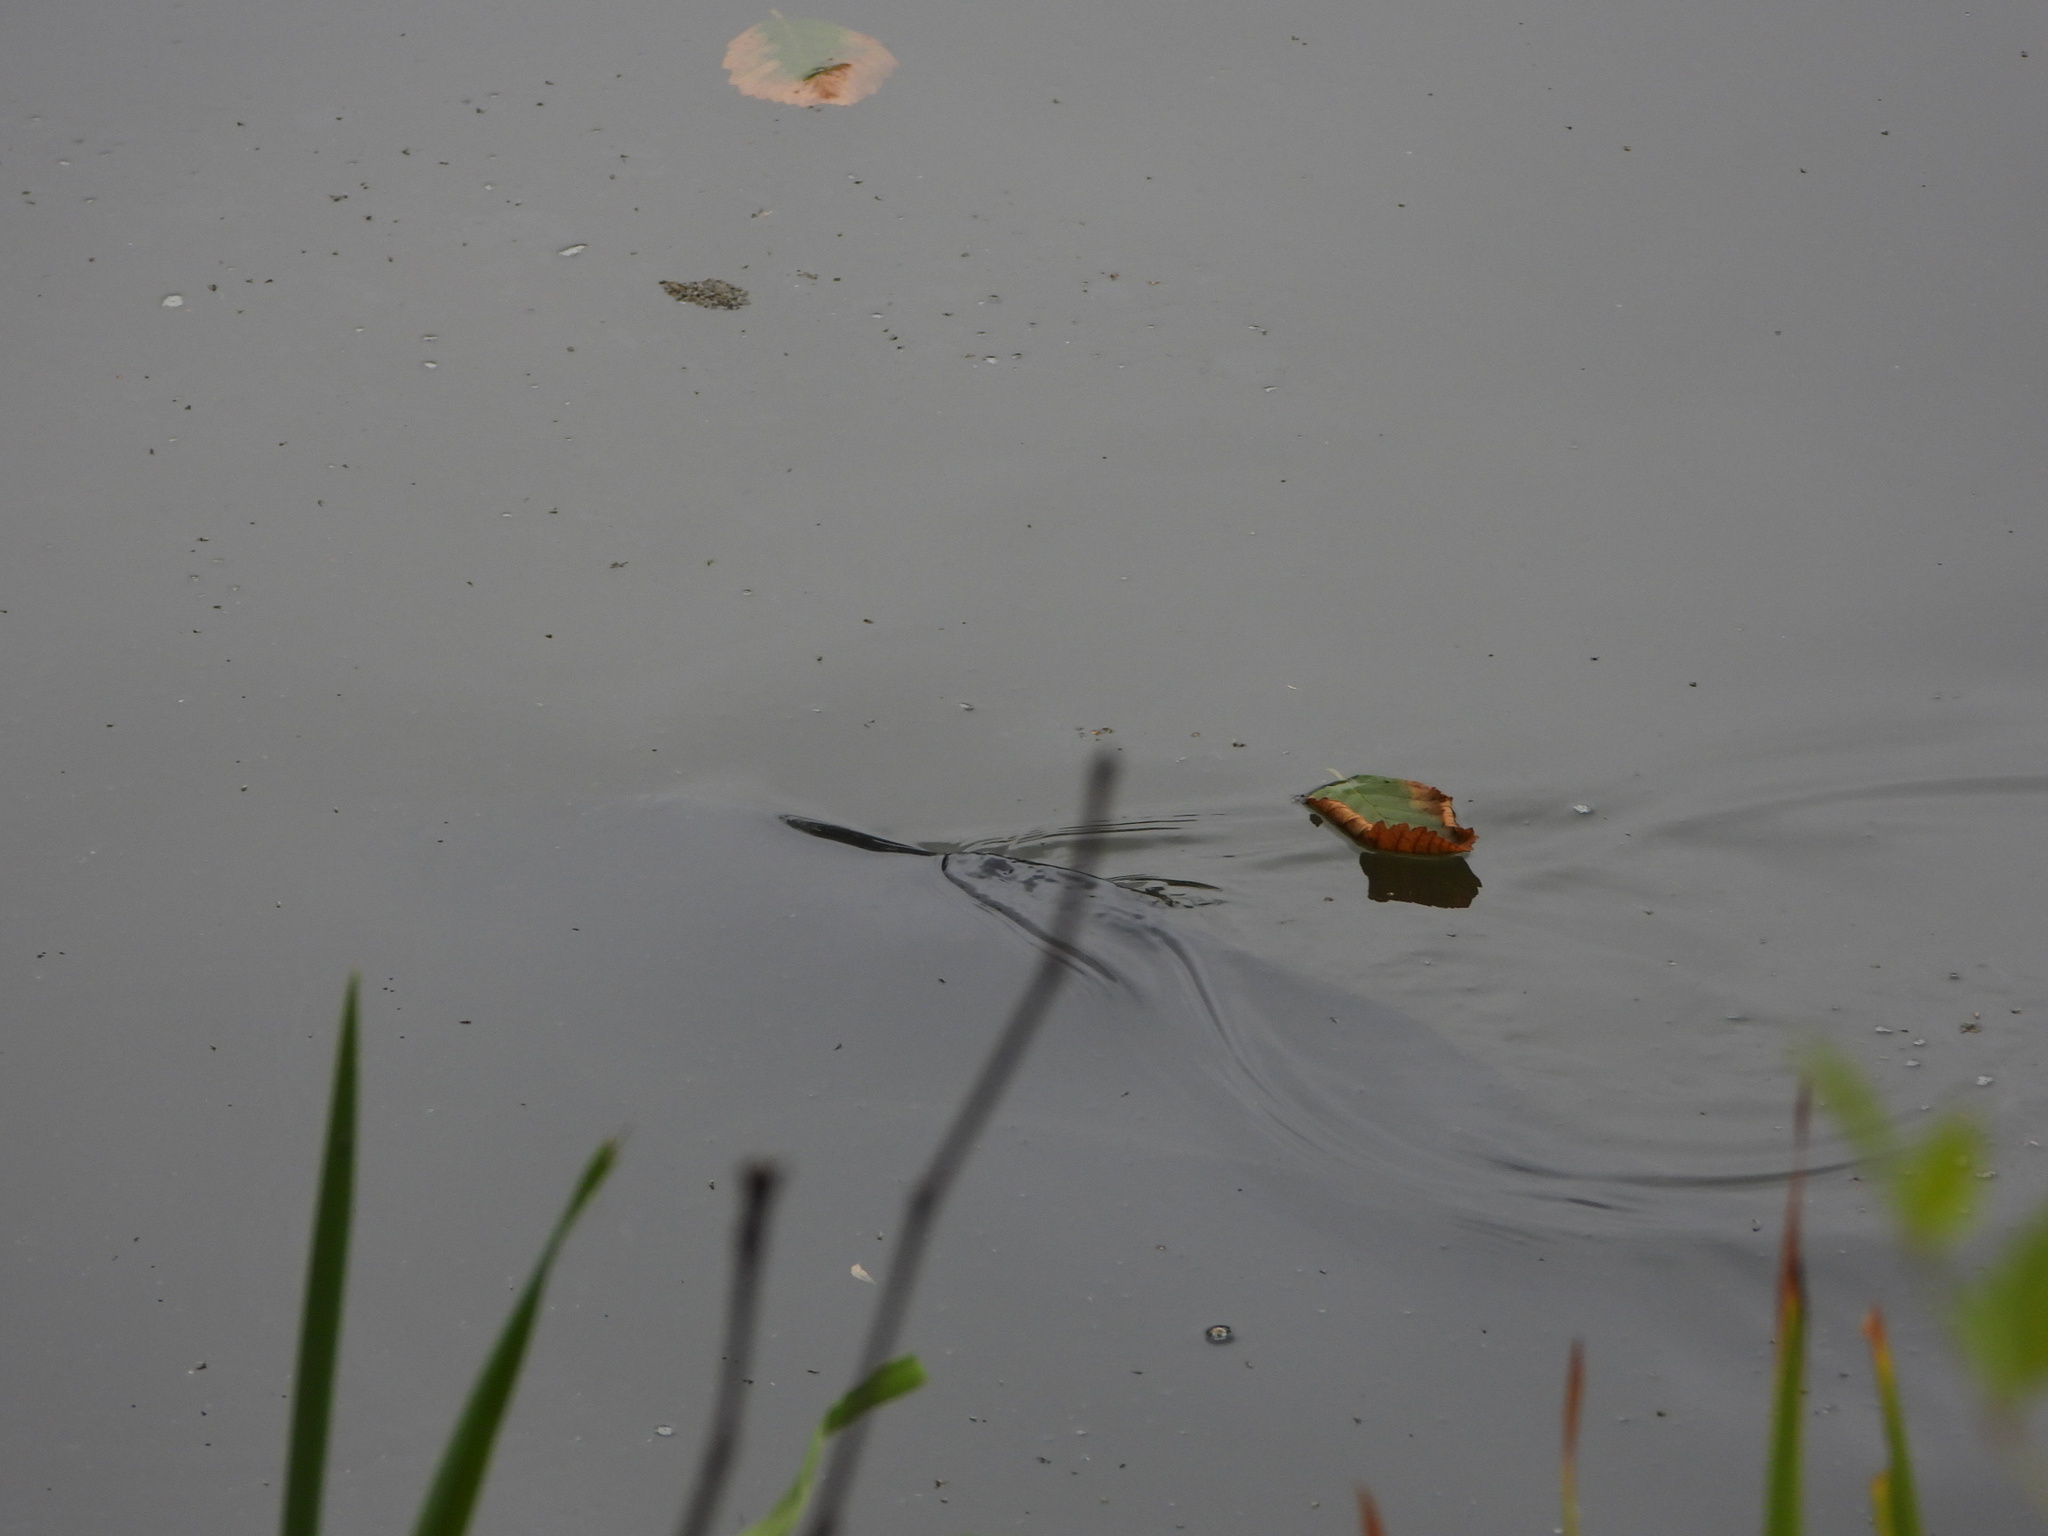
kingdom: Animalia
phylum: Chordata
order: Cypriniformes
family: Cyprinidae
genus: Cyprinus
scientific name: Cyprinus carpio
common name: Common carp
